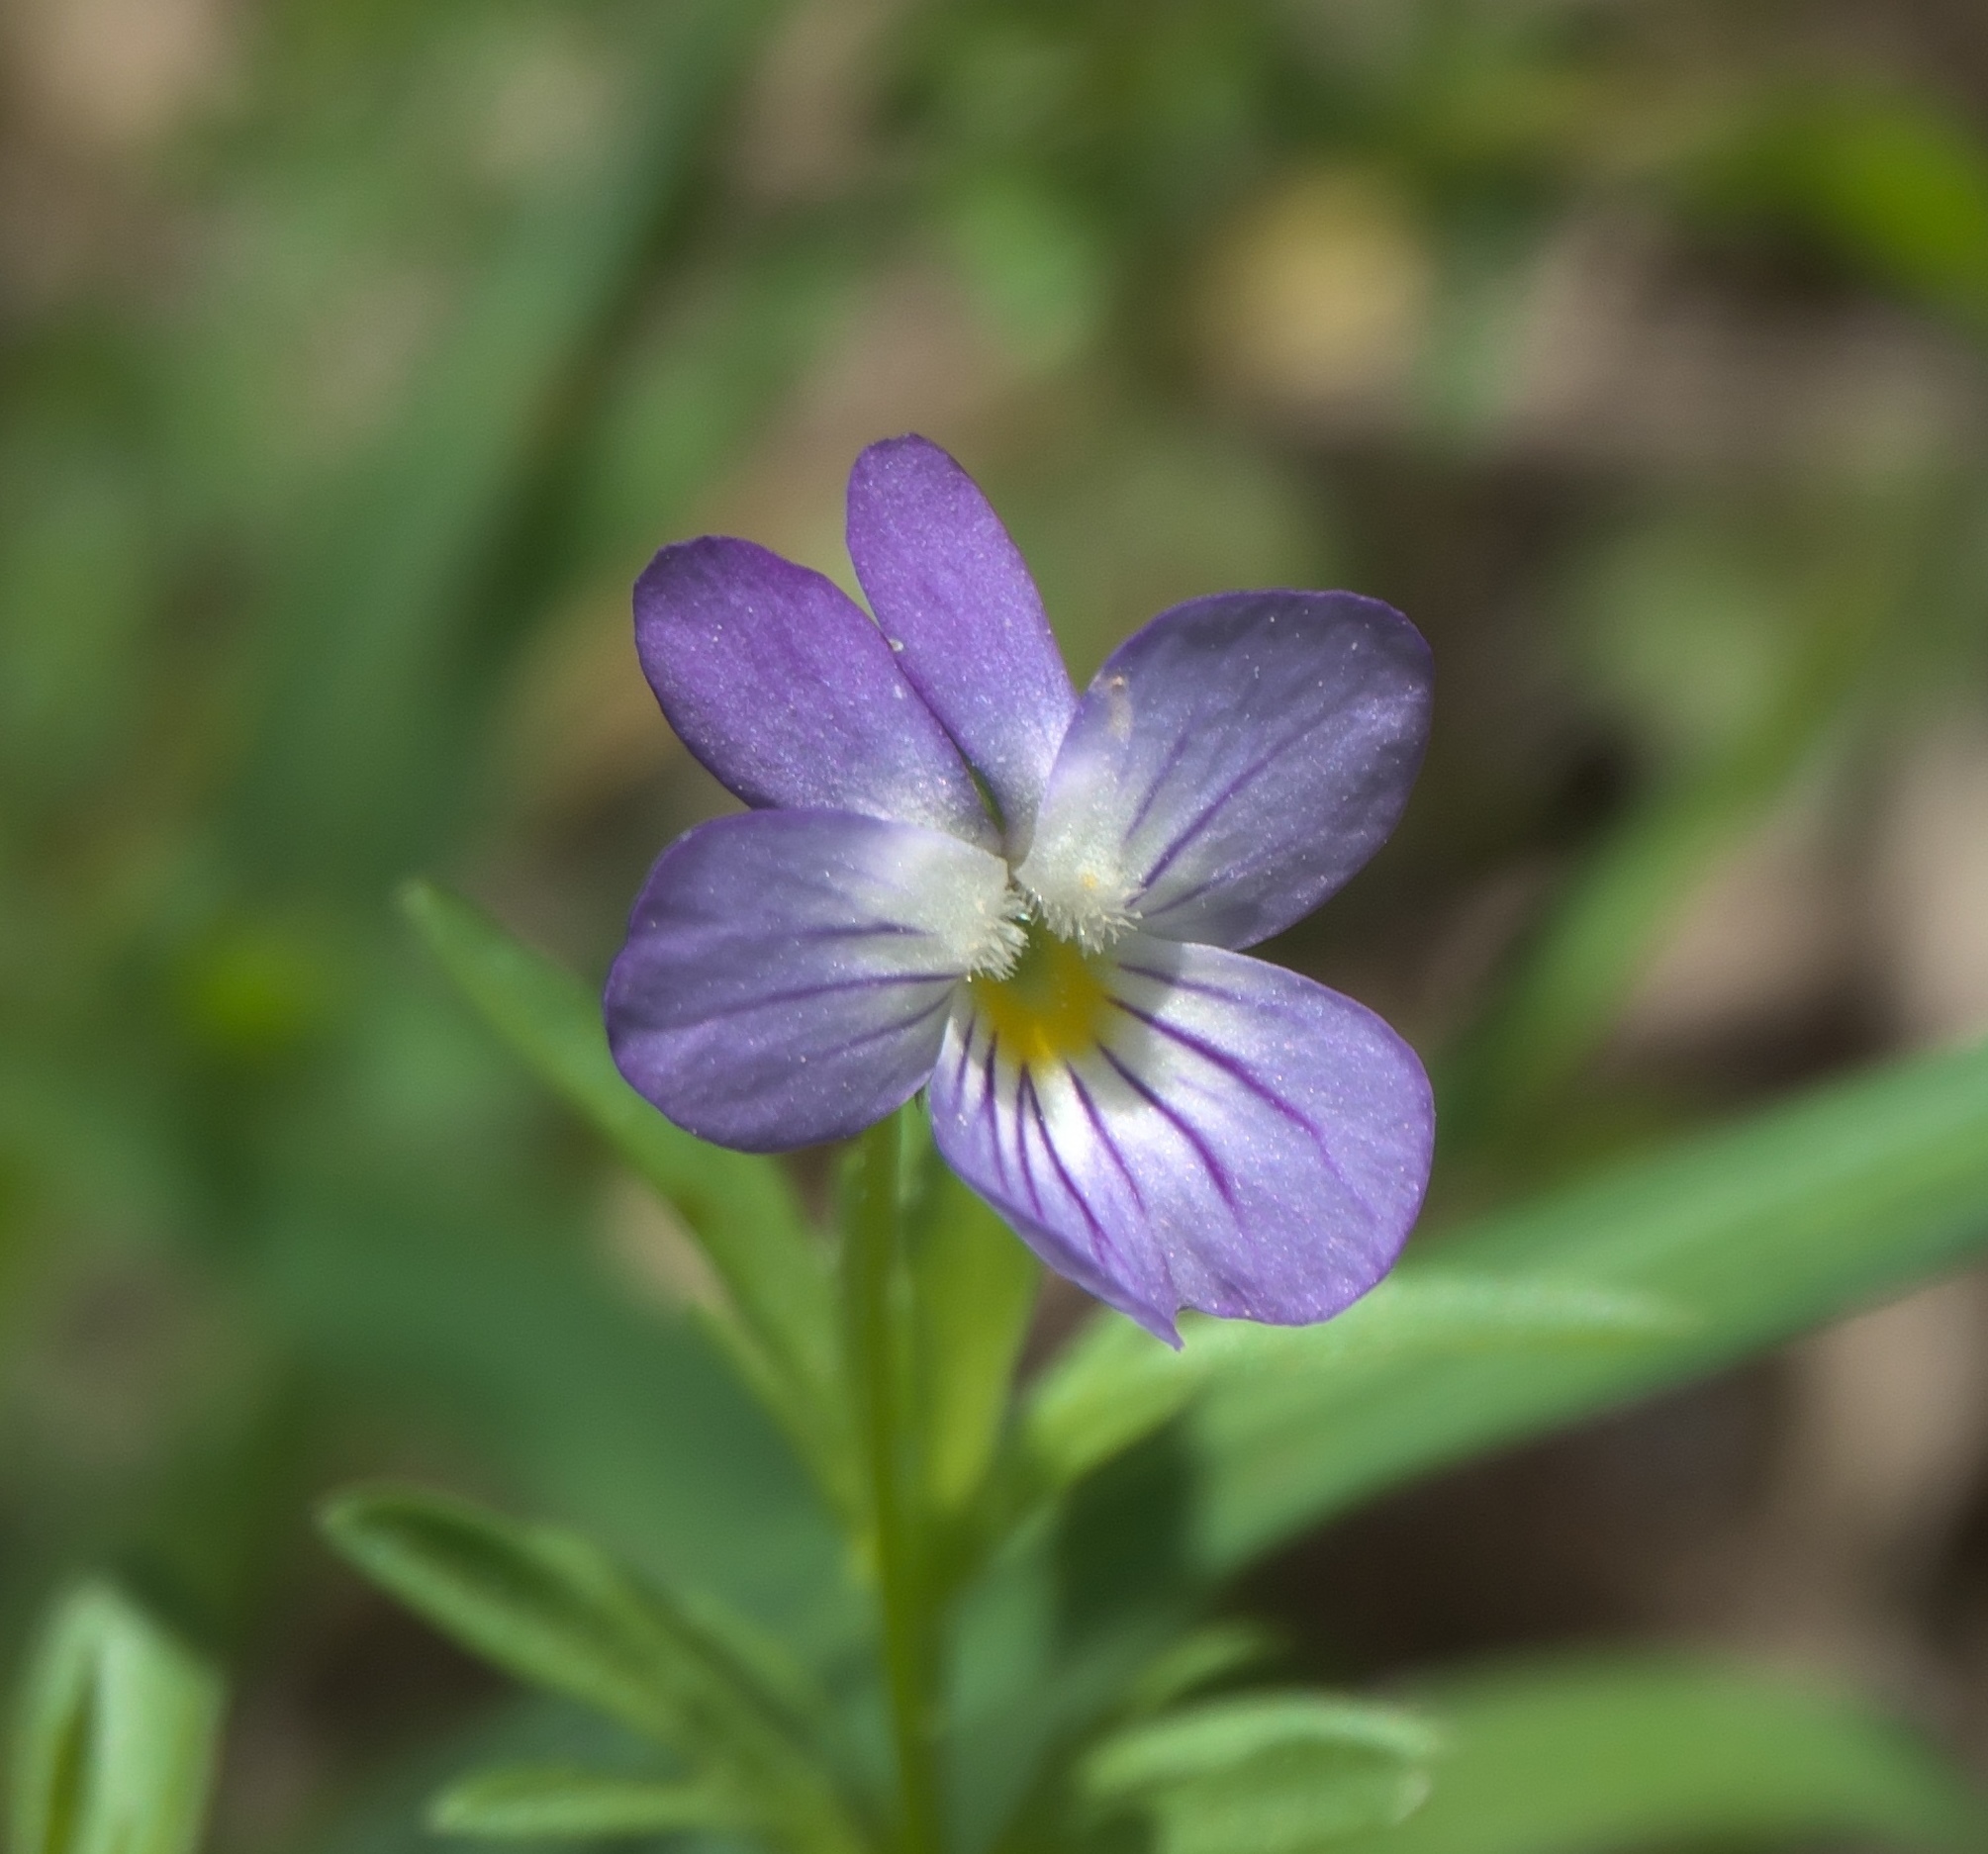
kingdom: Plantae
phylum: Tracheophyta
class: Magnoliopsida
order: Malpighiales
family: Violaceae
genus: Viola
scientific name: Viola rafinesquei
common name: American field pansy
